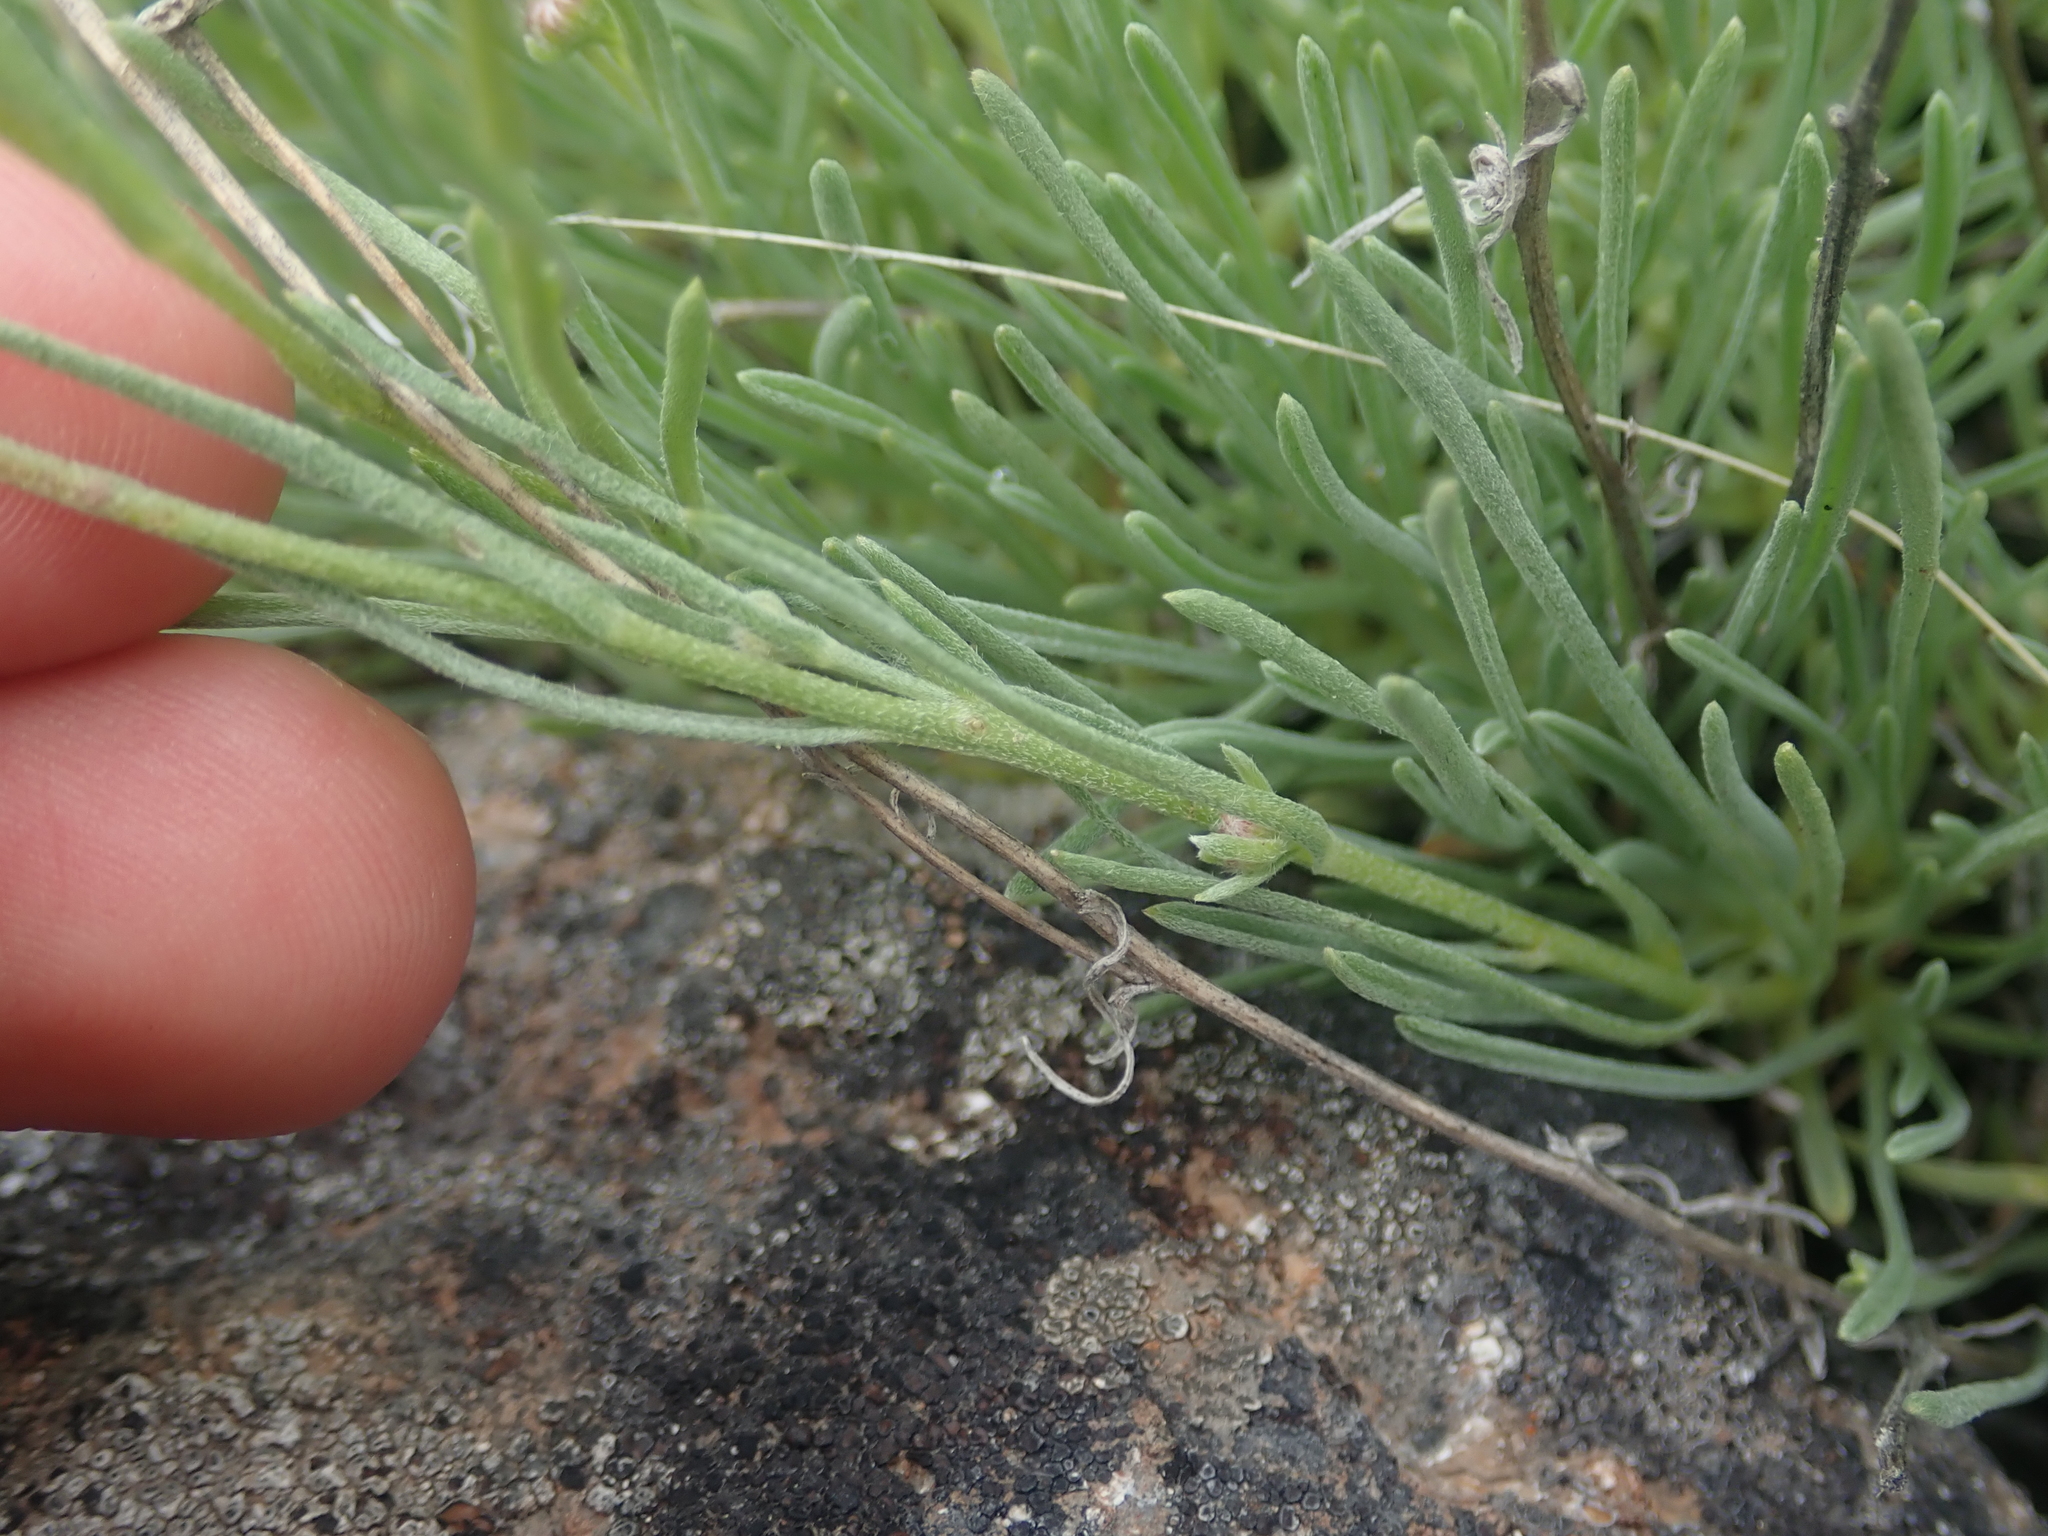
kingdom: Plantae
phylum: Tracheophyta
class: Magnoliopsida
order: Asterales
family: Asteraceae
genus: Erigeron
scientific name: Erigeron linearis
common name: Desert yellow fleabane
